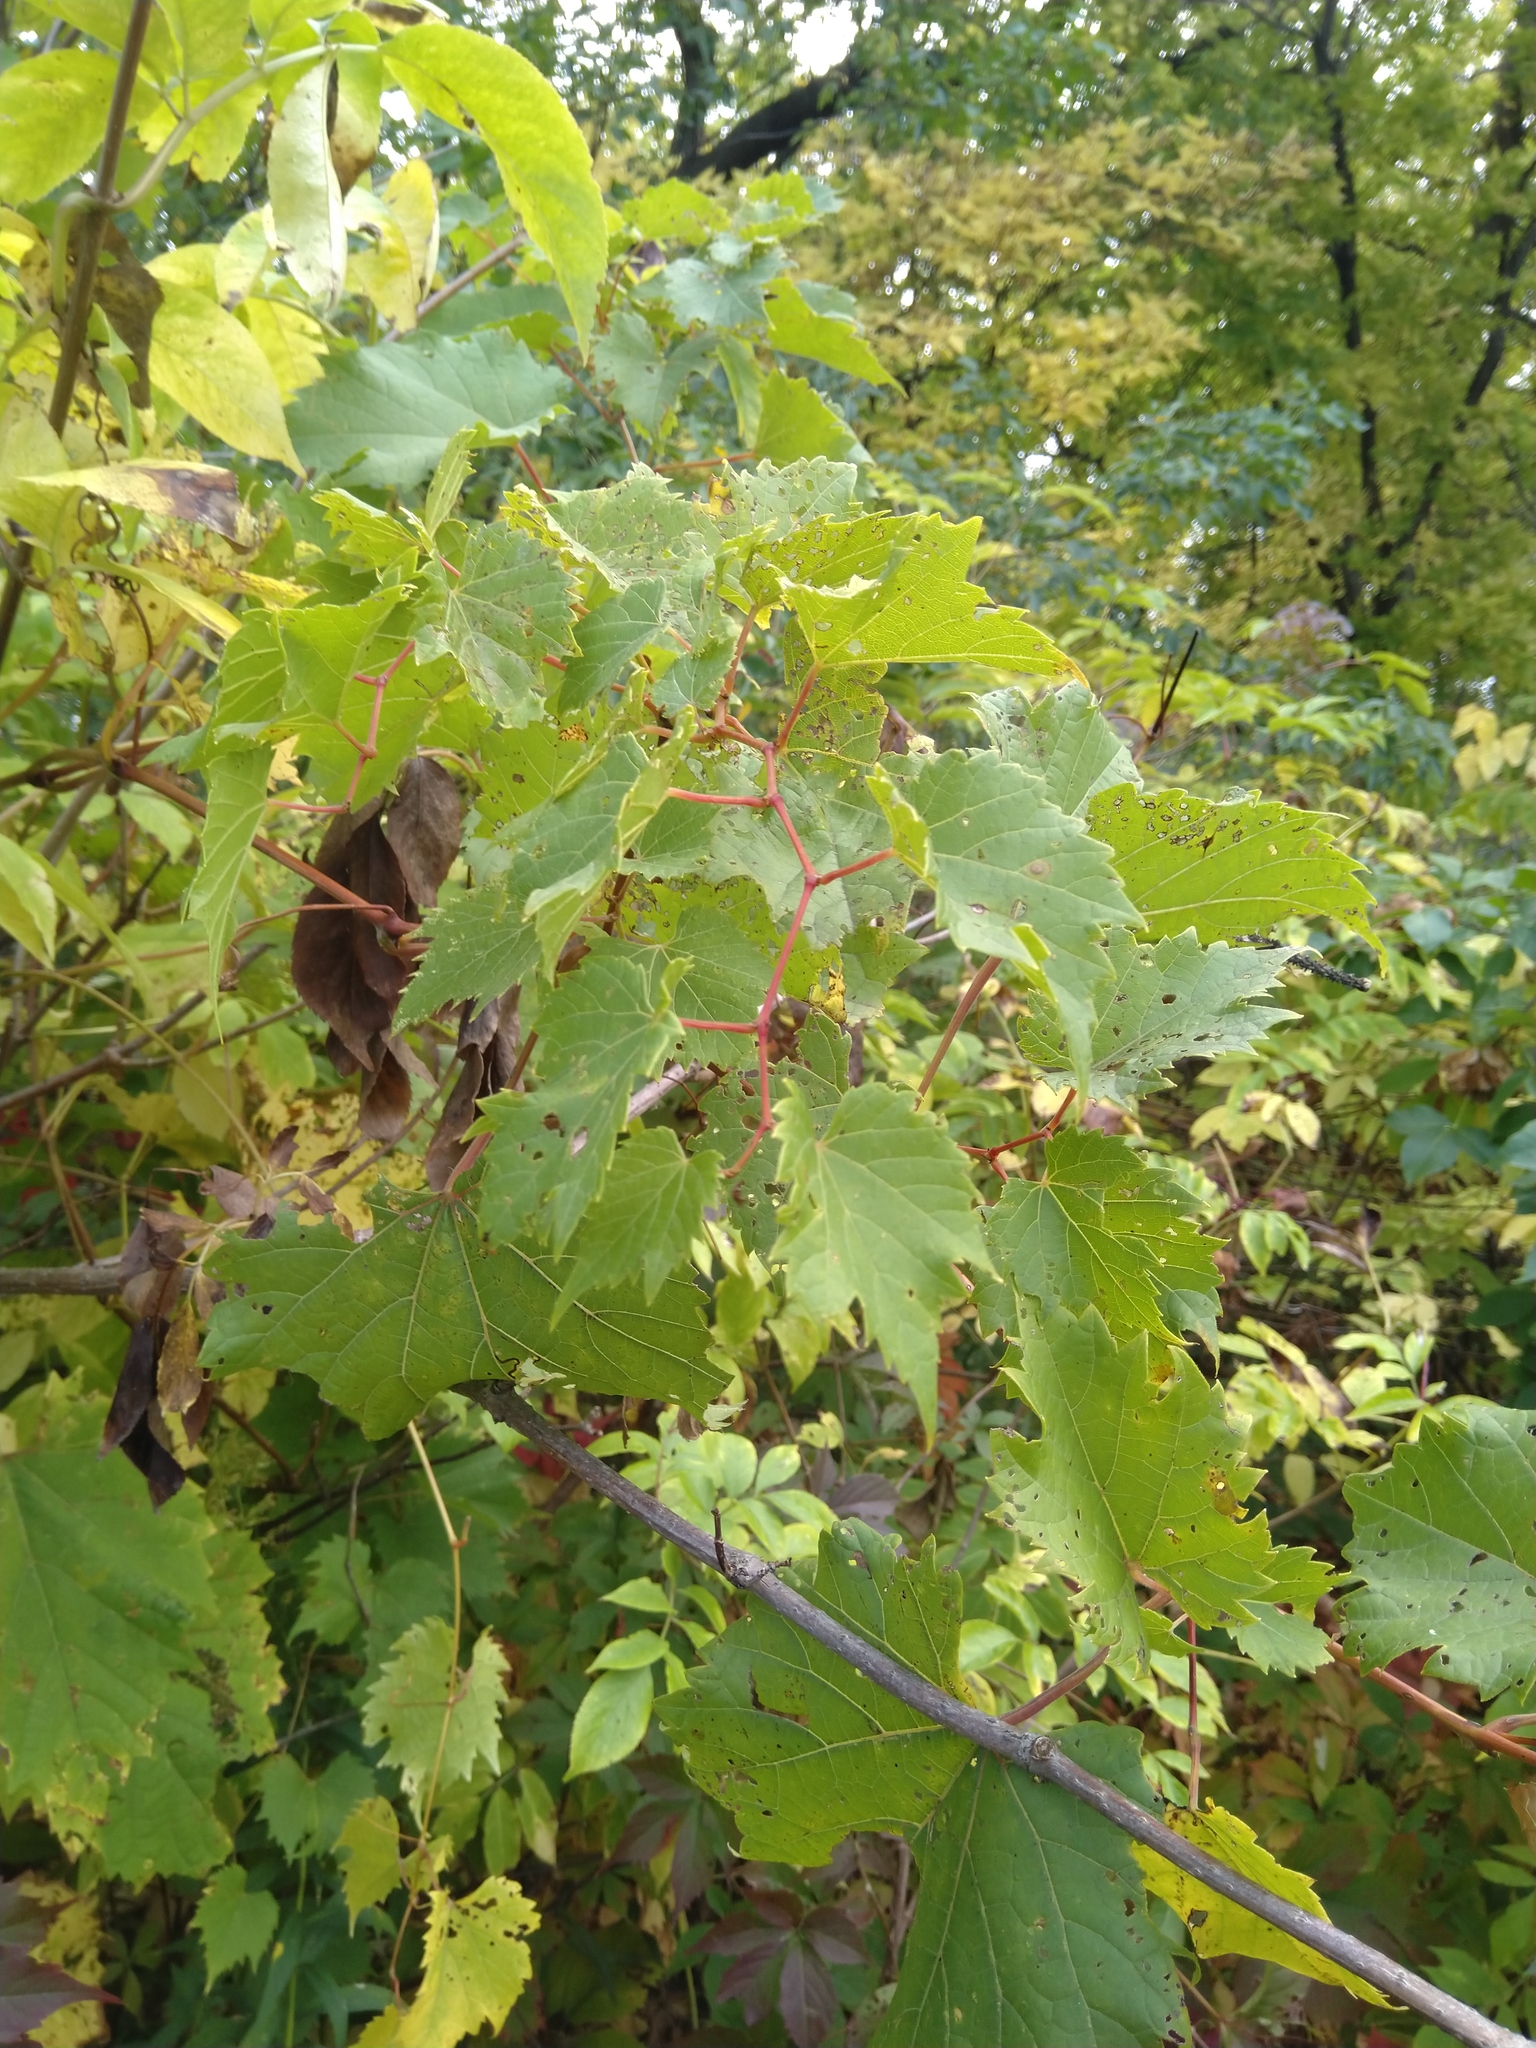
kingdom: Plantae
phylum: Tracheophyta
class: Magnoliopsida
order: Vitales
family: Vitaceae
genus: Vitis
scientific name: Vitis riparia
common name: Frost grape
